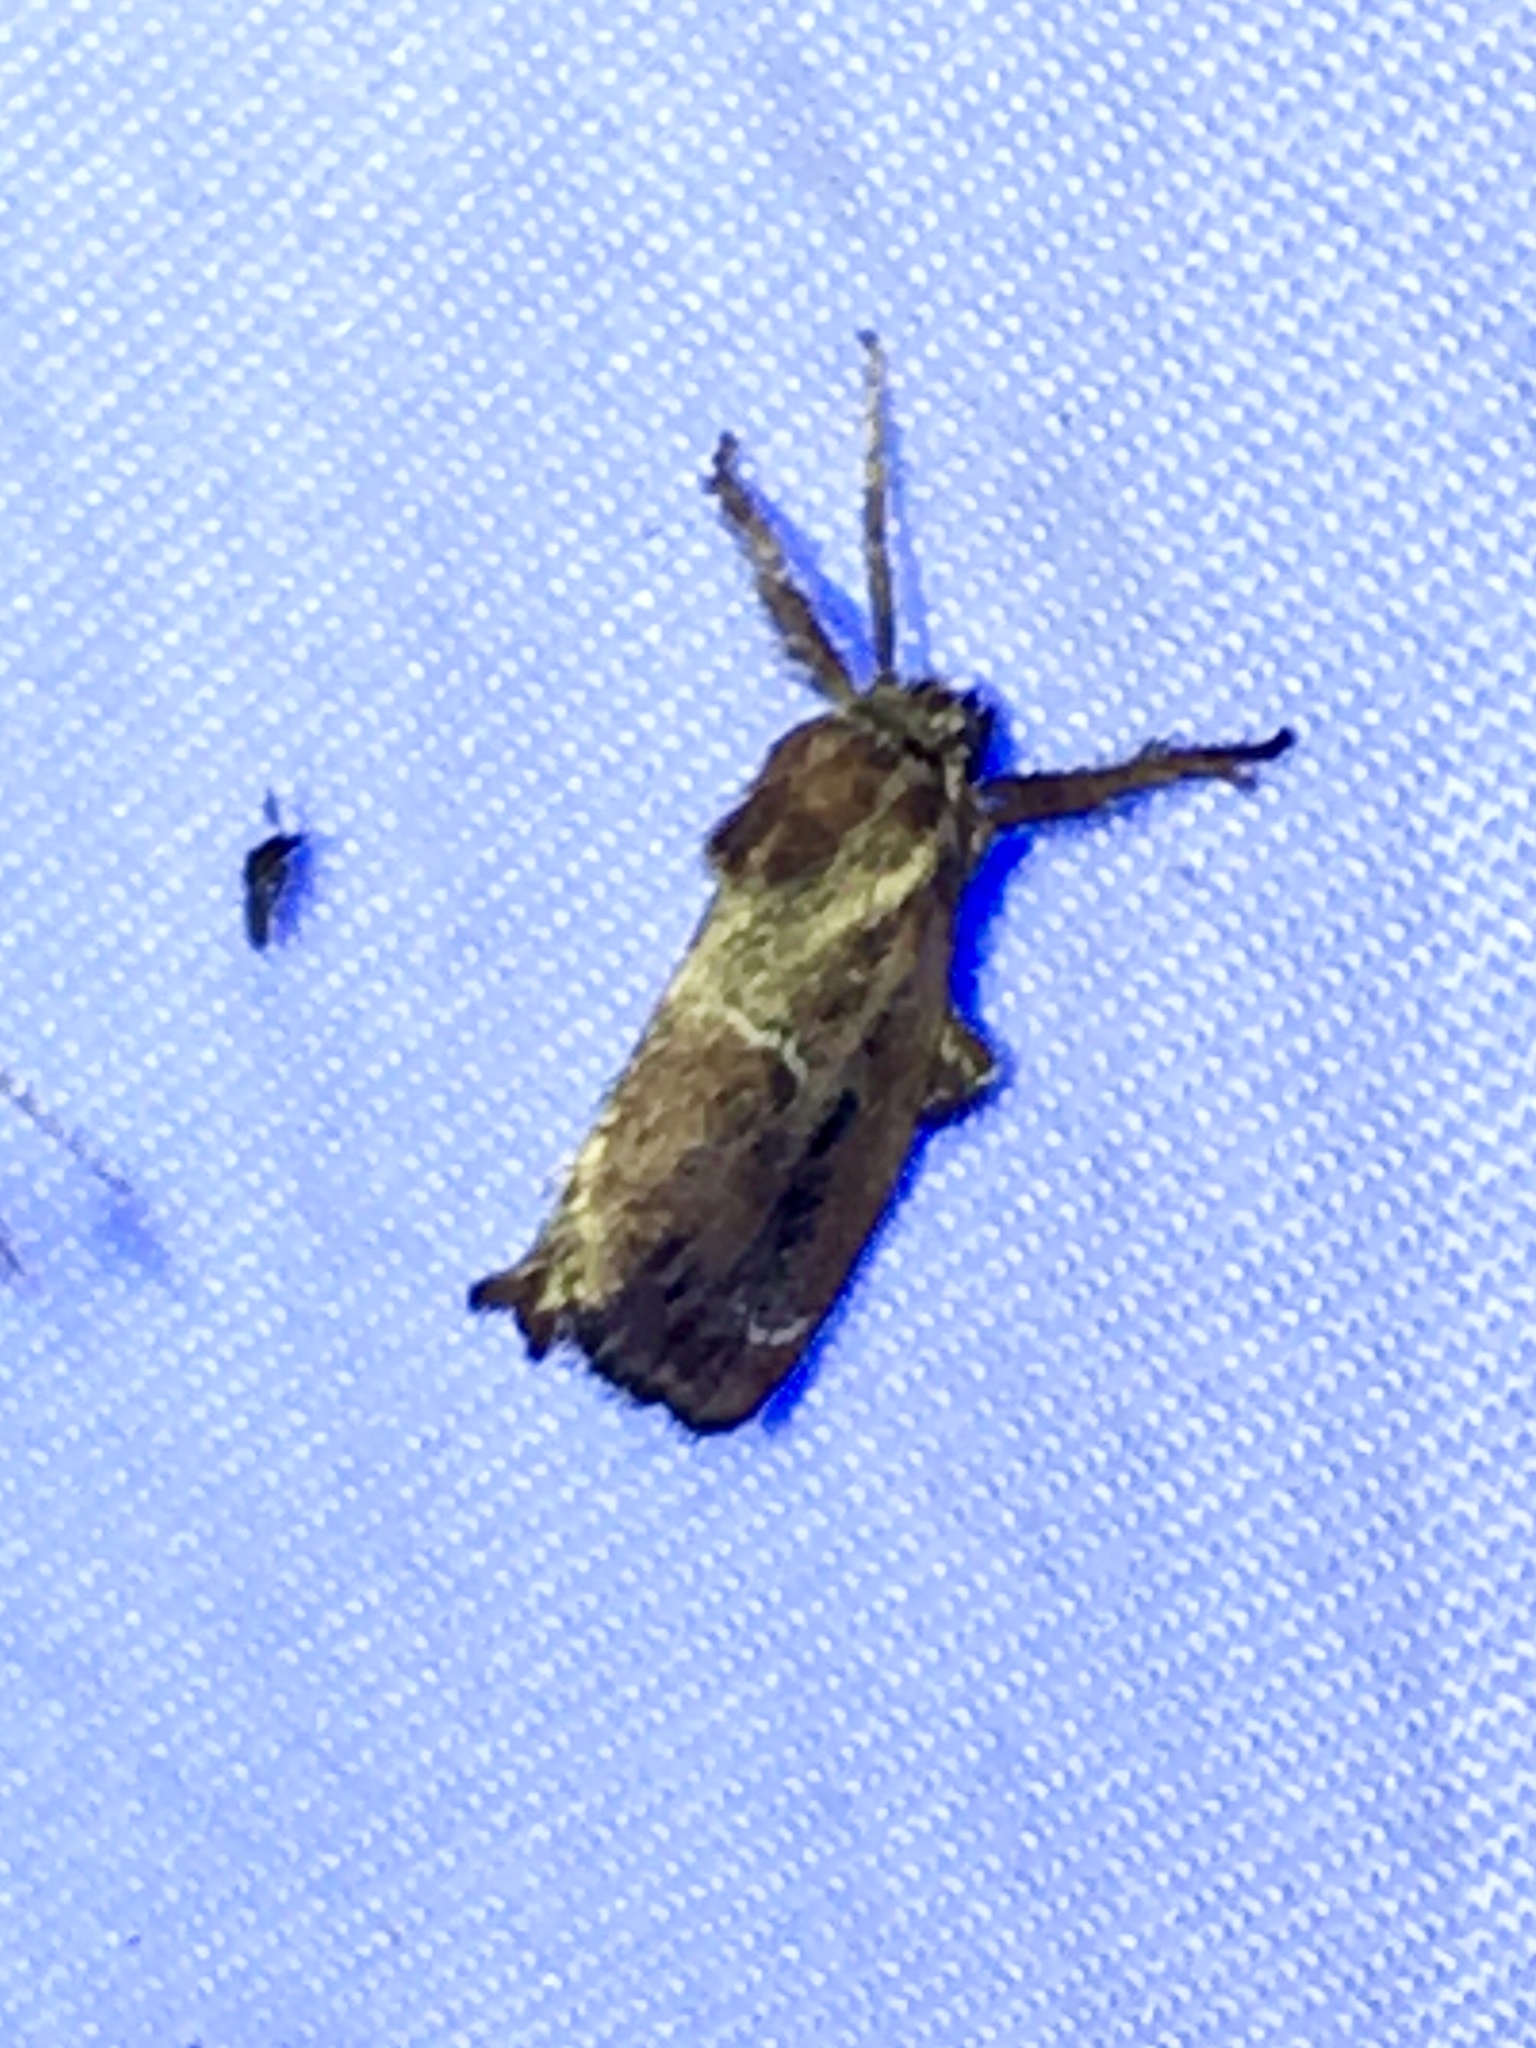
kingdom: Animalia
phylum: Arthropoda
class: Insecta
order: Lepidoptera
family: Limacodidae
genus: Adoneta
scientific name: Adoneta spinuloides
